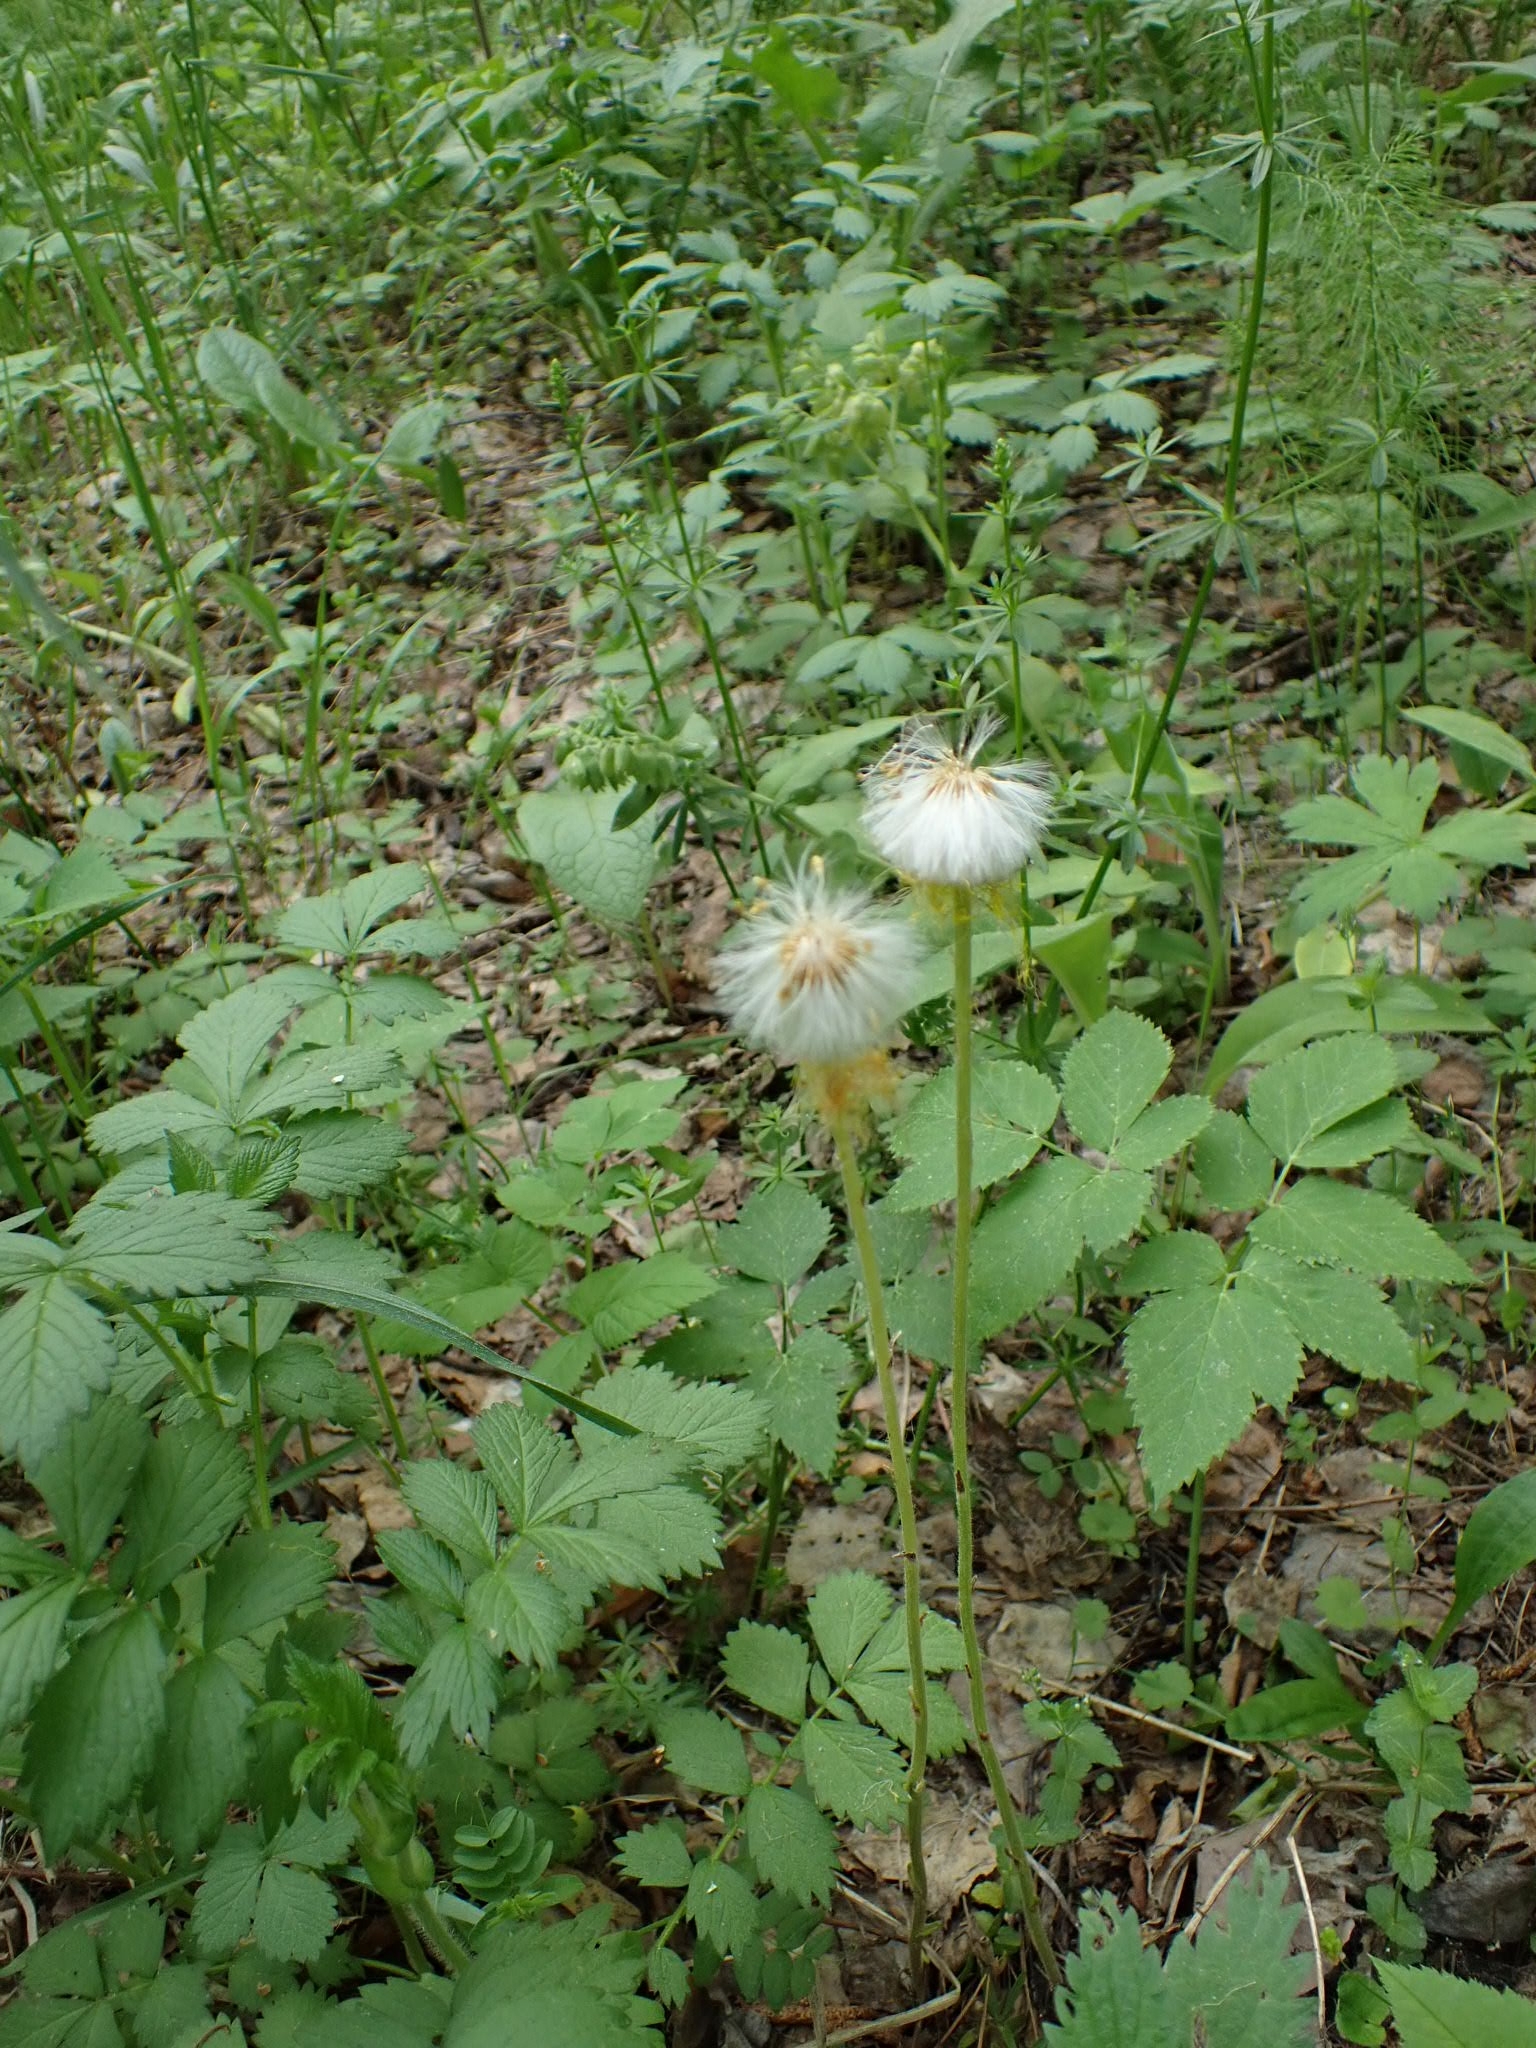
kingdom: Plantae
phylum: Tracheophyta
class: Magnoliopsida
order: Asterales
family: Asteraceae
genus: Tussilago
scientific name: Tussilago farfara
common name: Coltsfoot
